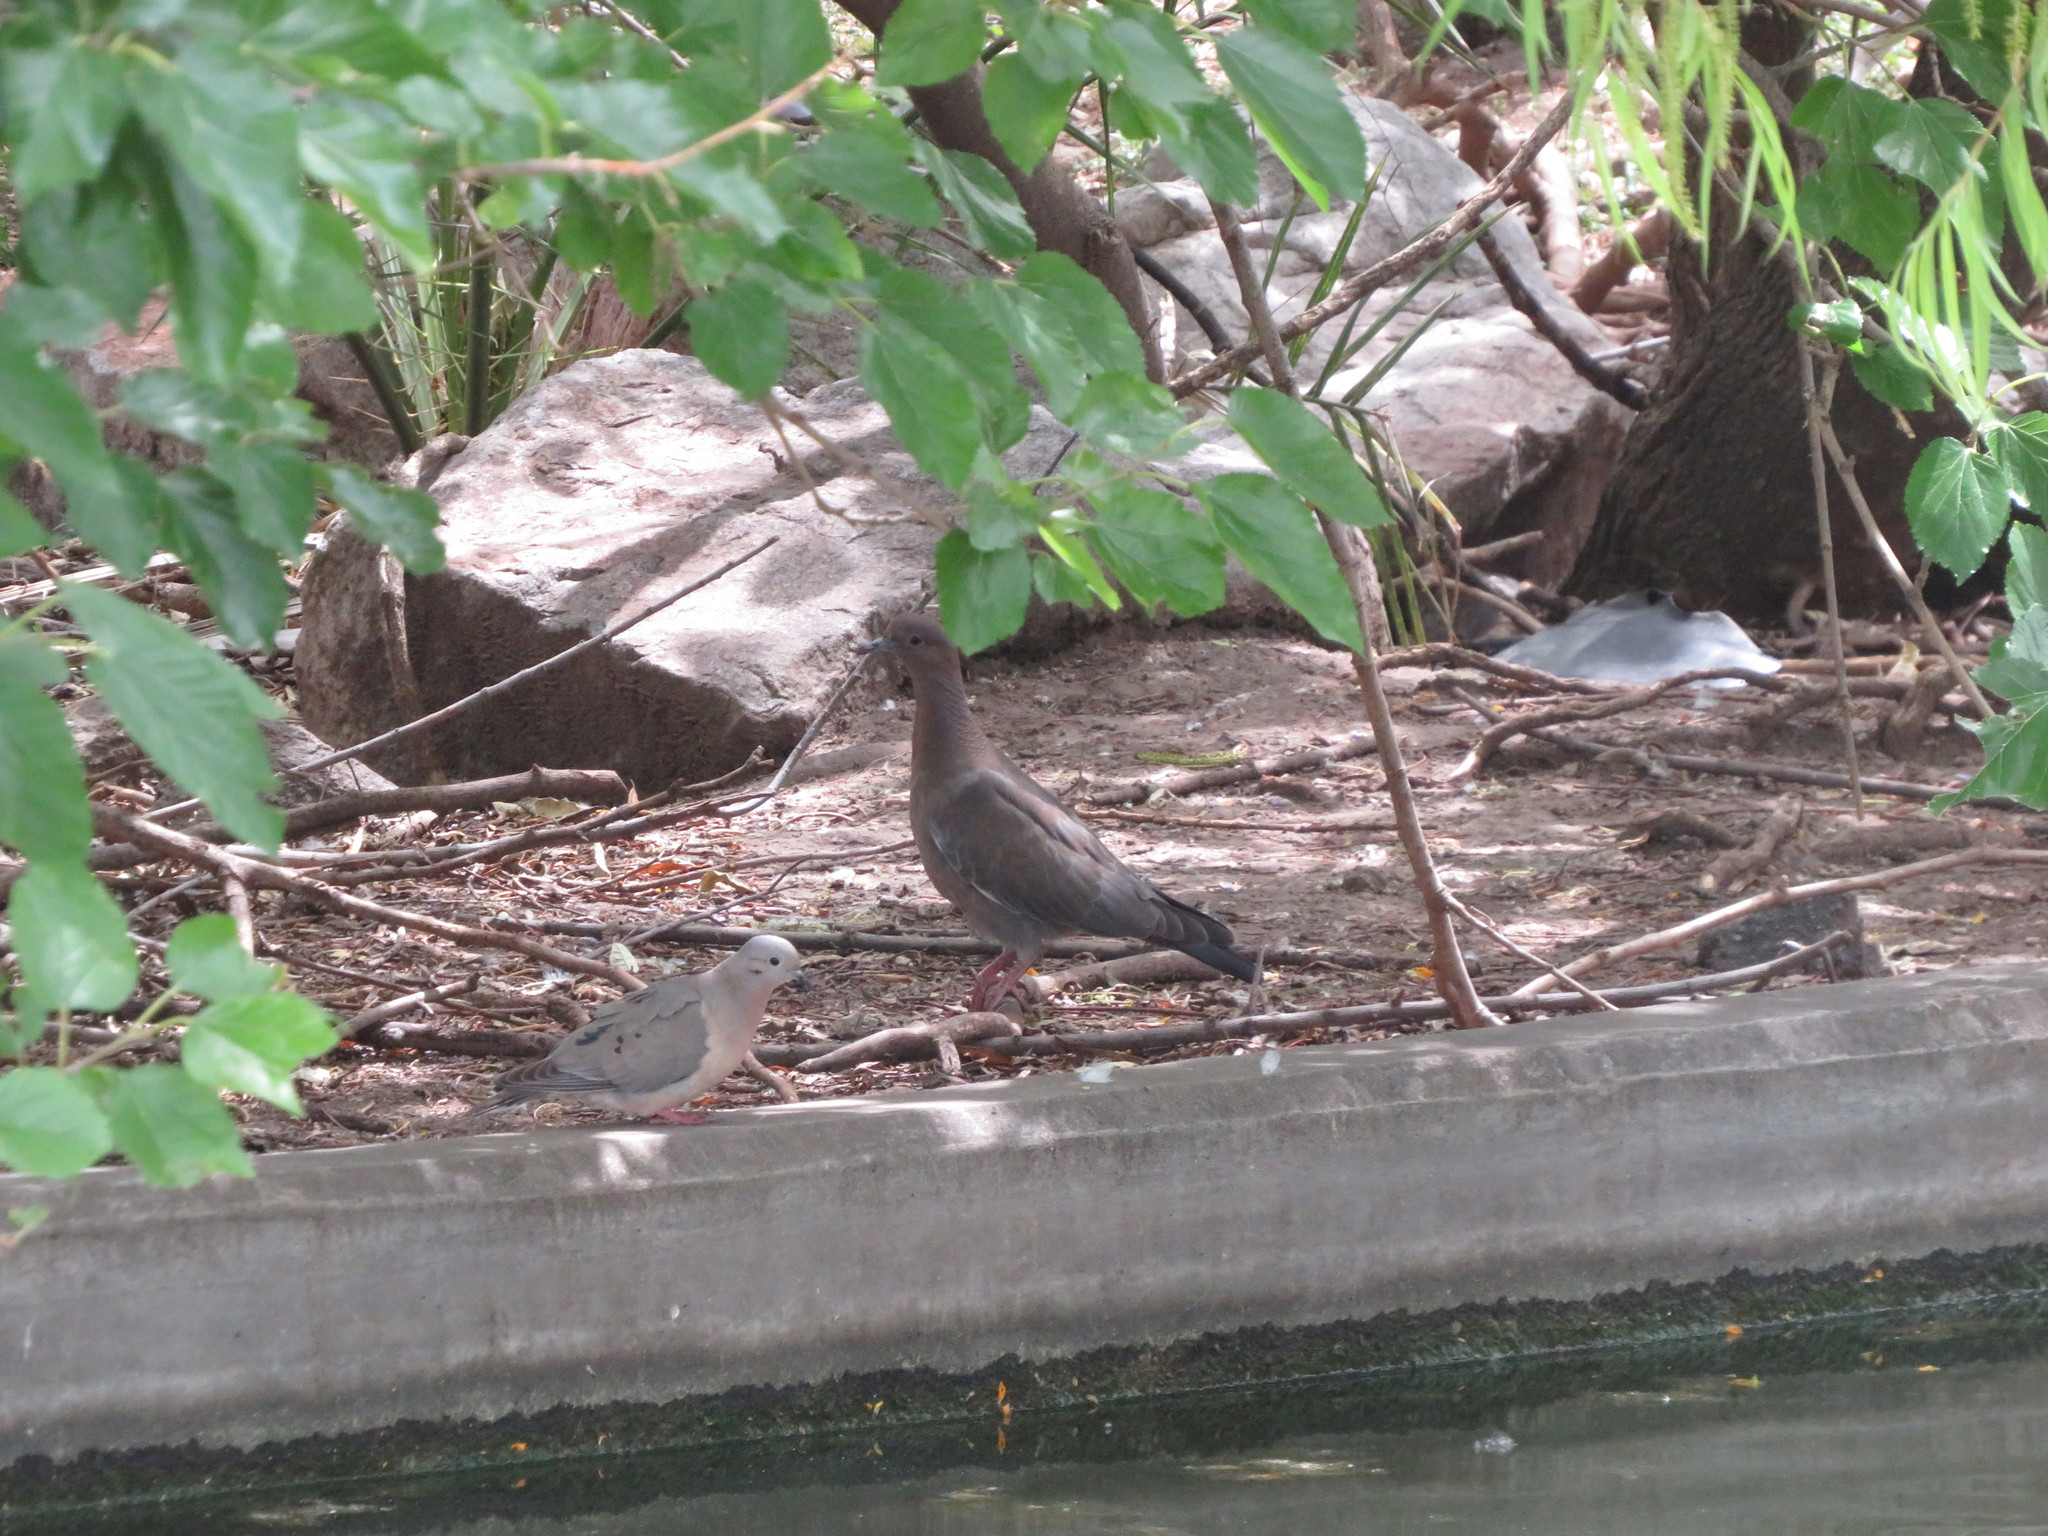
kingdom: Animalia
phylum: Chordata
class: Aves
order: Columbiformes
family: Columbidae
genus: Patagioenas
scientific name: Patagioenas picazuro
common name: Picazuro pigeon
